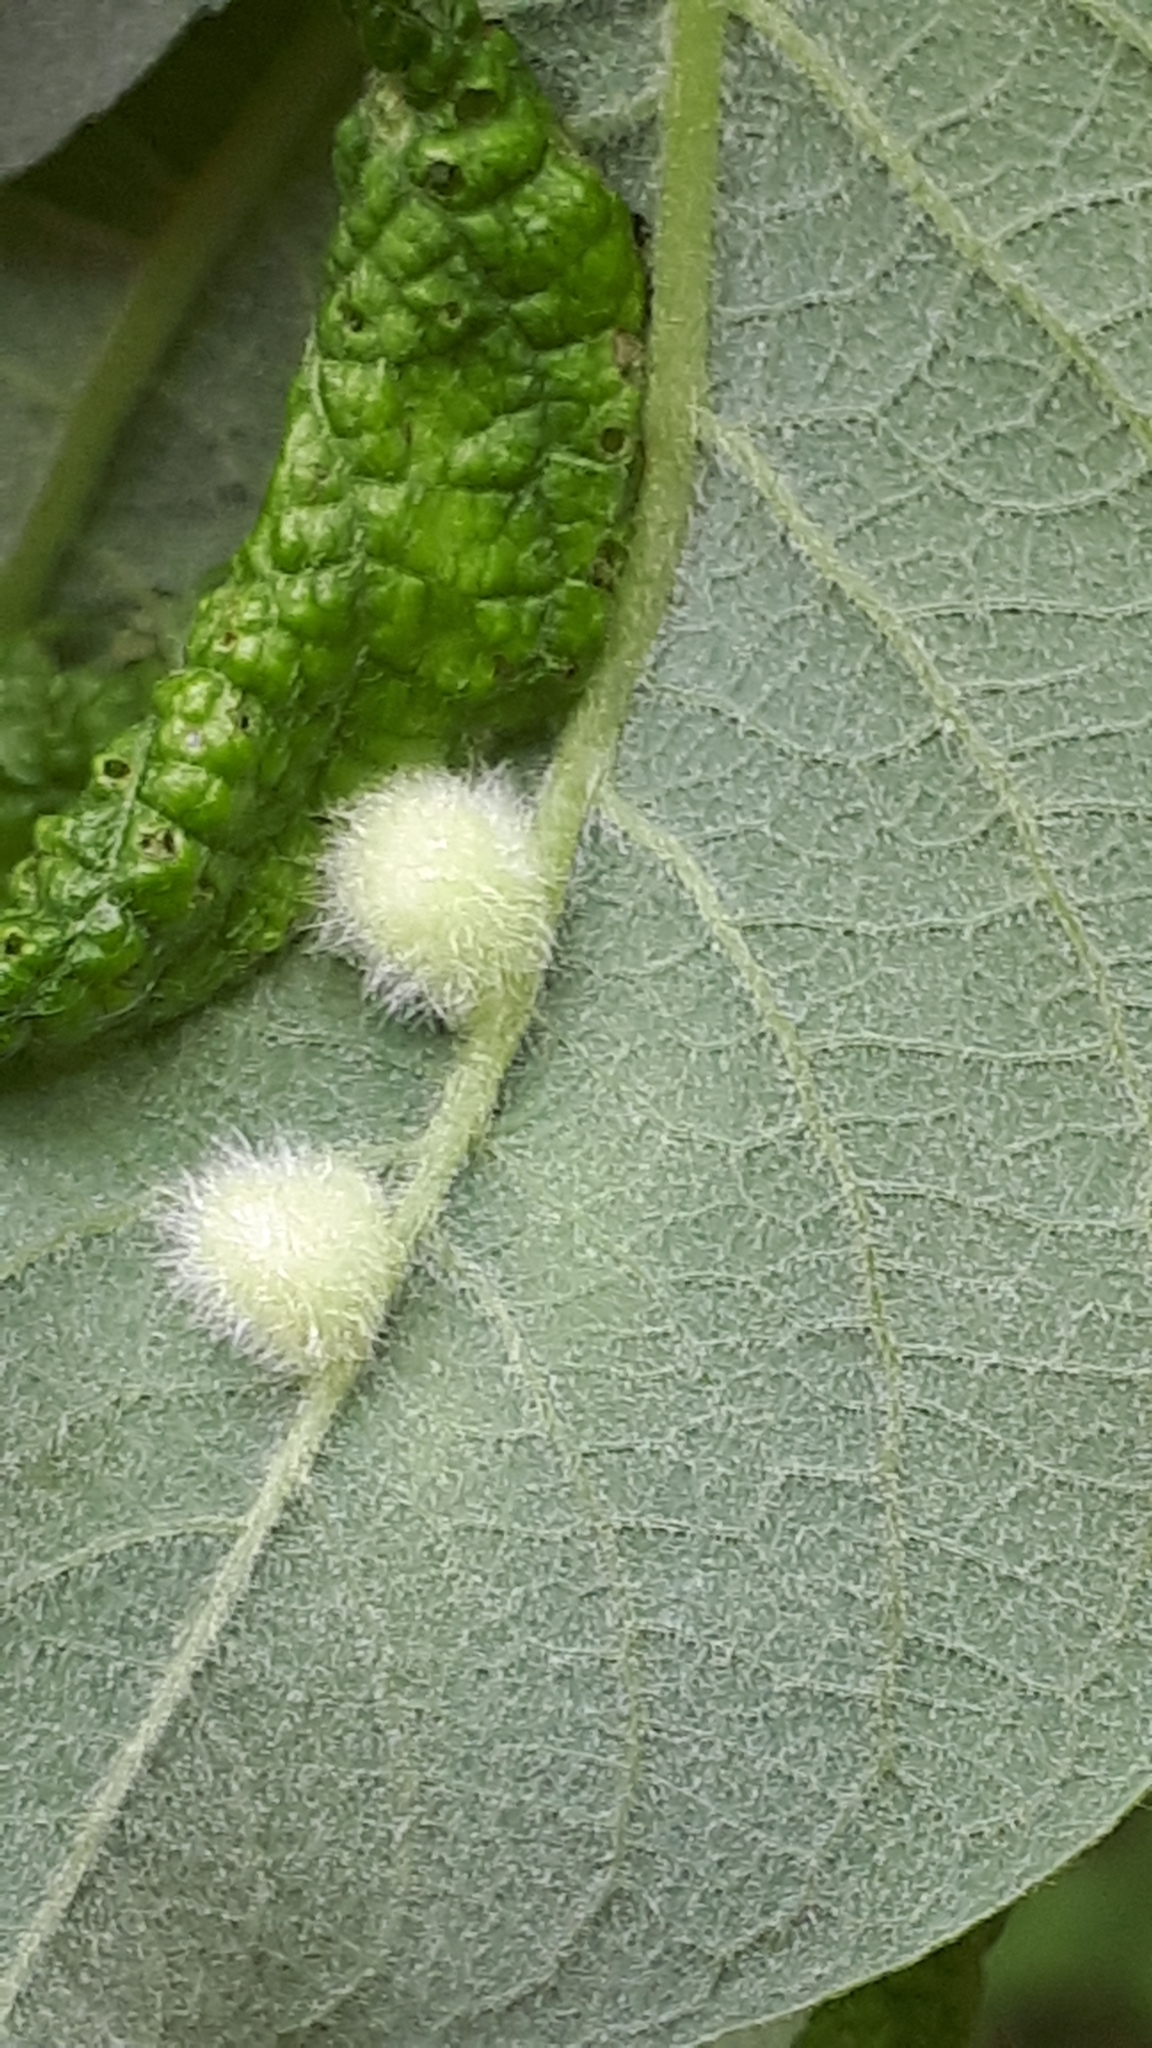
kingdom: Animalia
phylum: Arthropoda
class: Insecta
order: Hymenoptera
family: Tenthredinidae
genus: Pontania
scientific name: Pontania pedunculi
